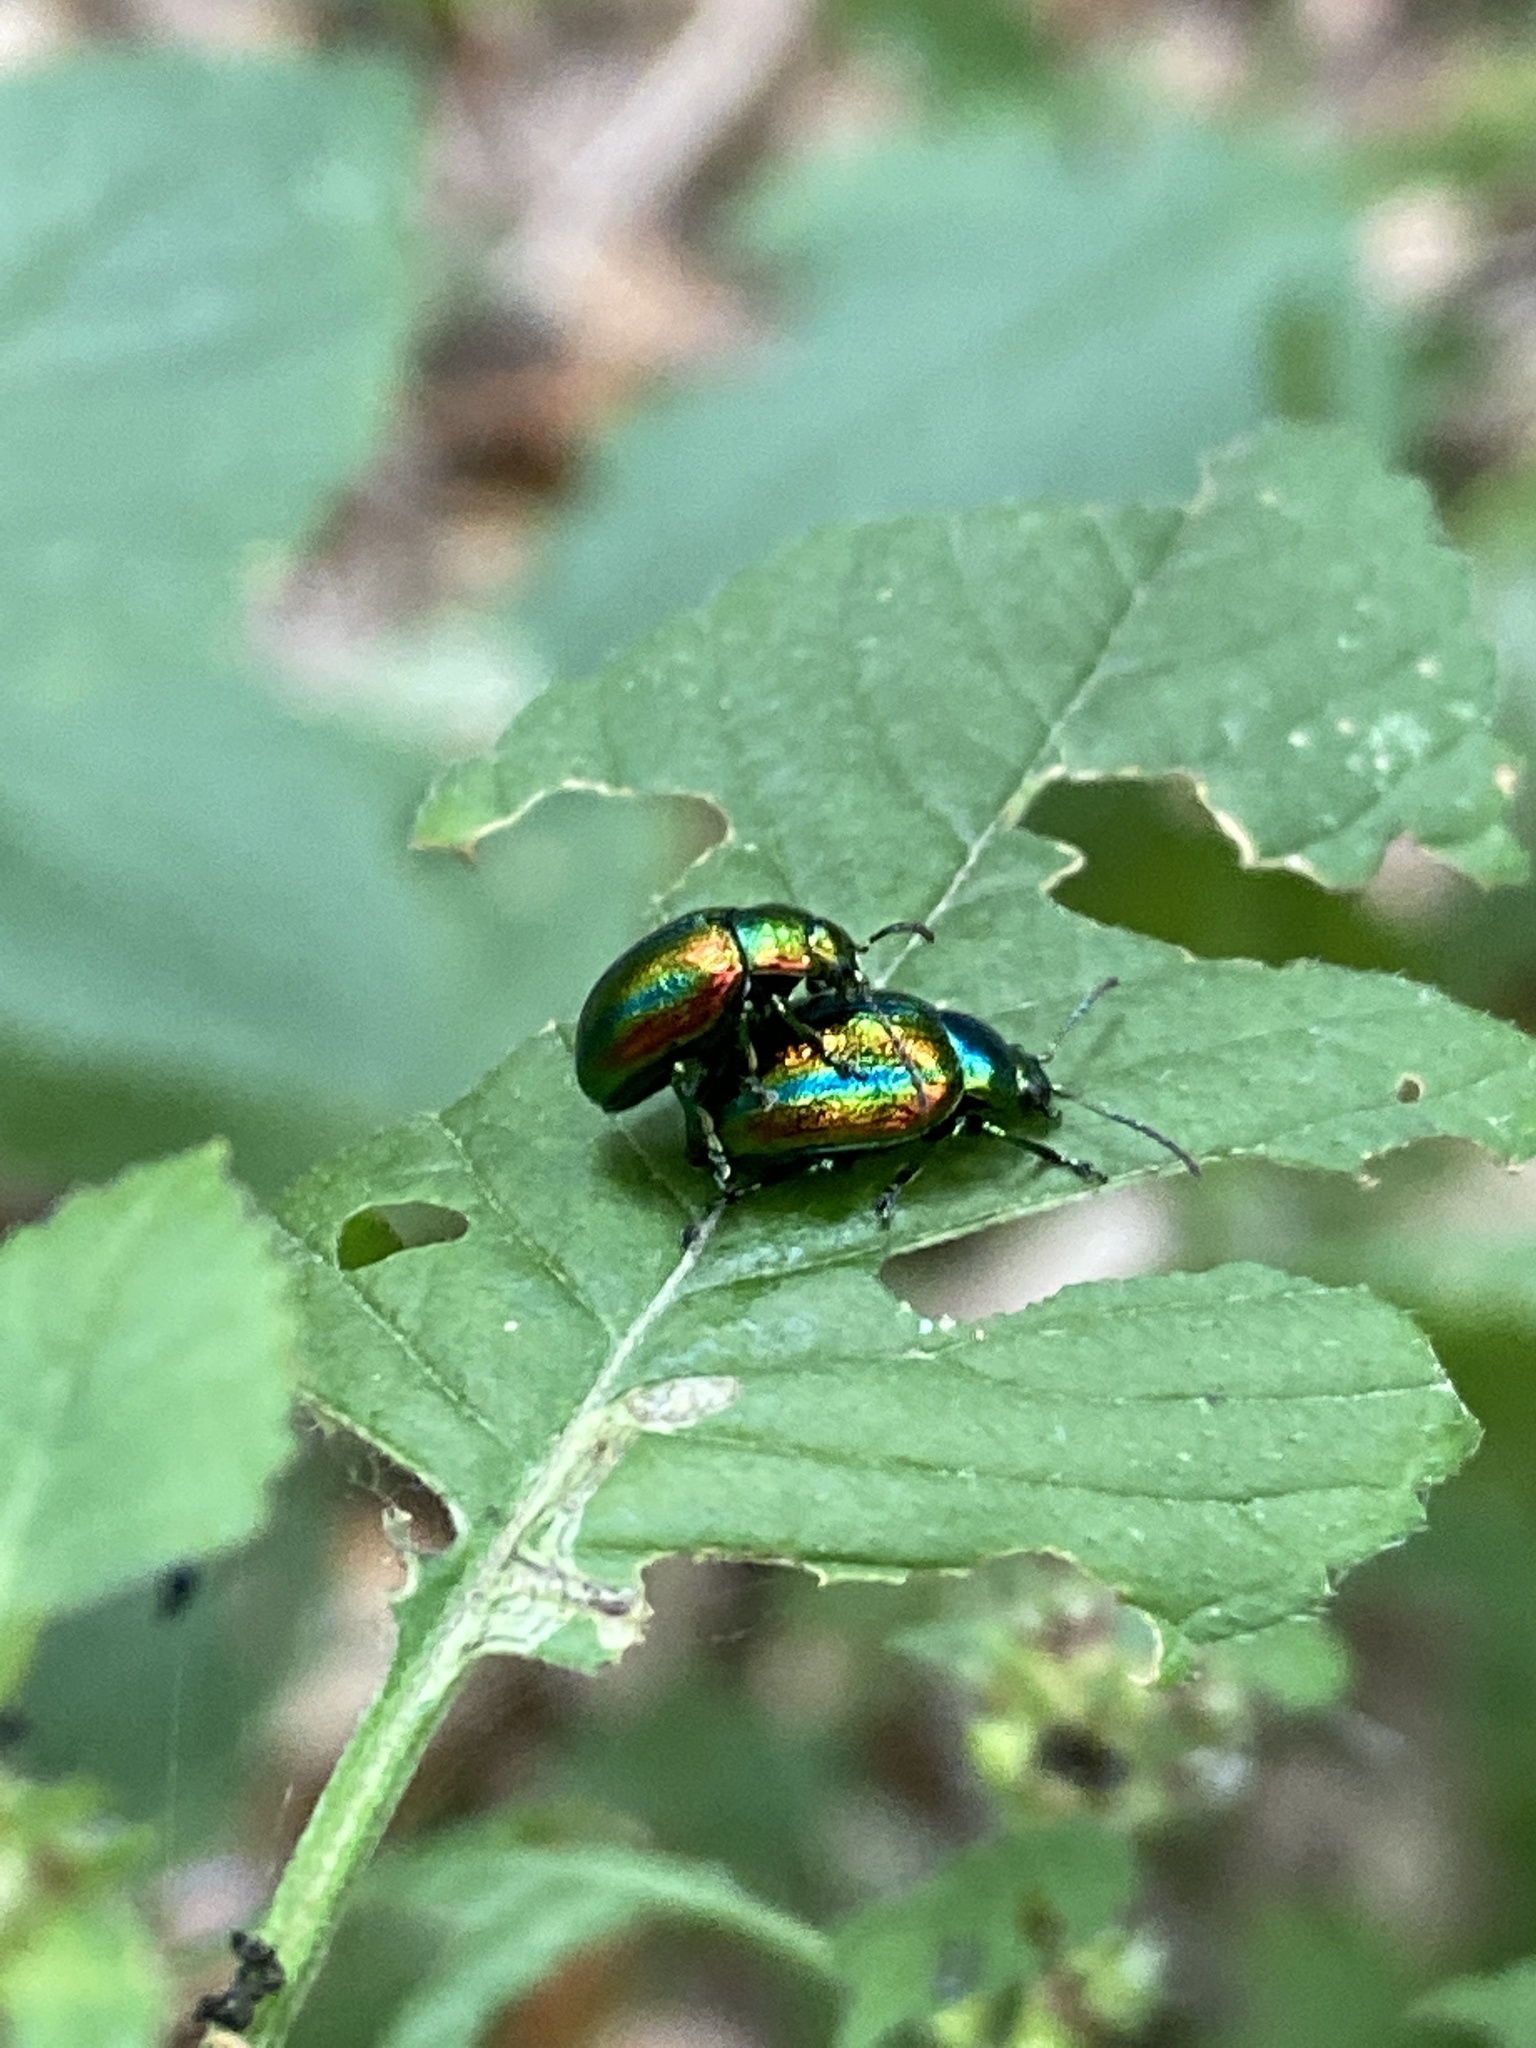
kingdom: Animalia
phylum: Arthropoda
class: Insecta
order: Coleoptera
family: Chrysomelidae
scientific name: Chrysomelidae
